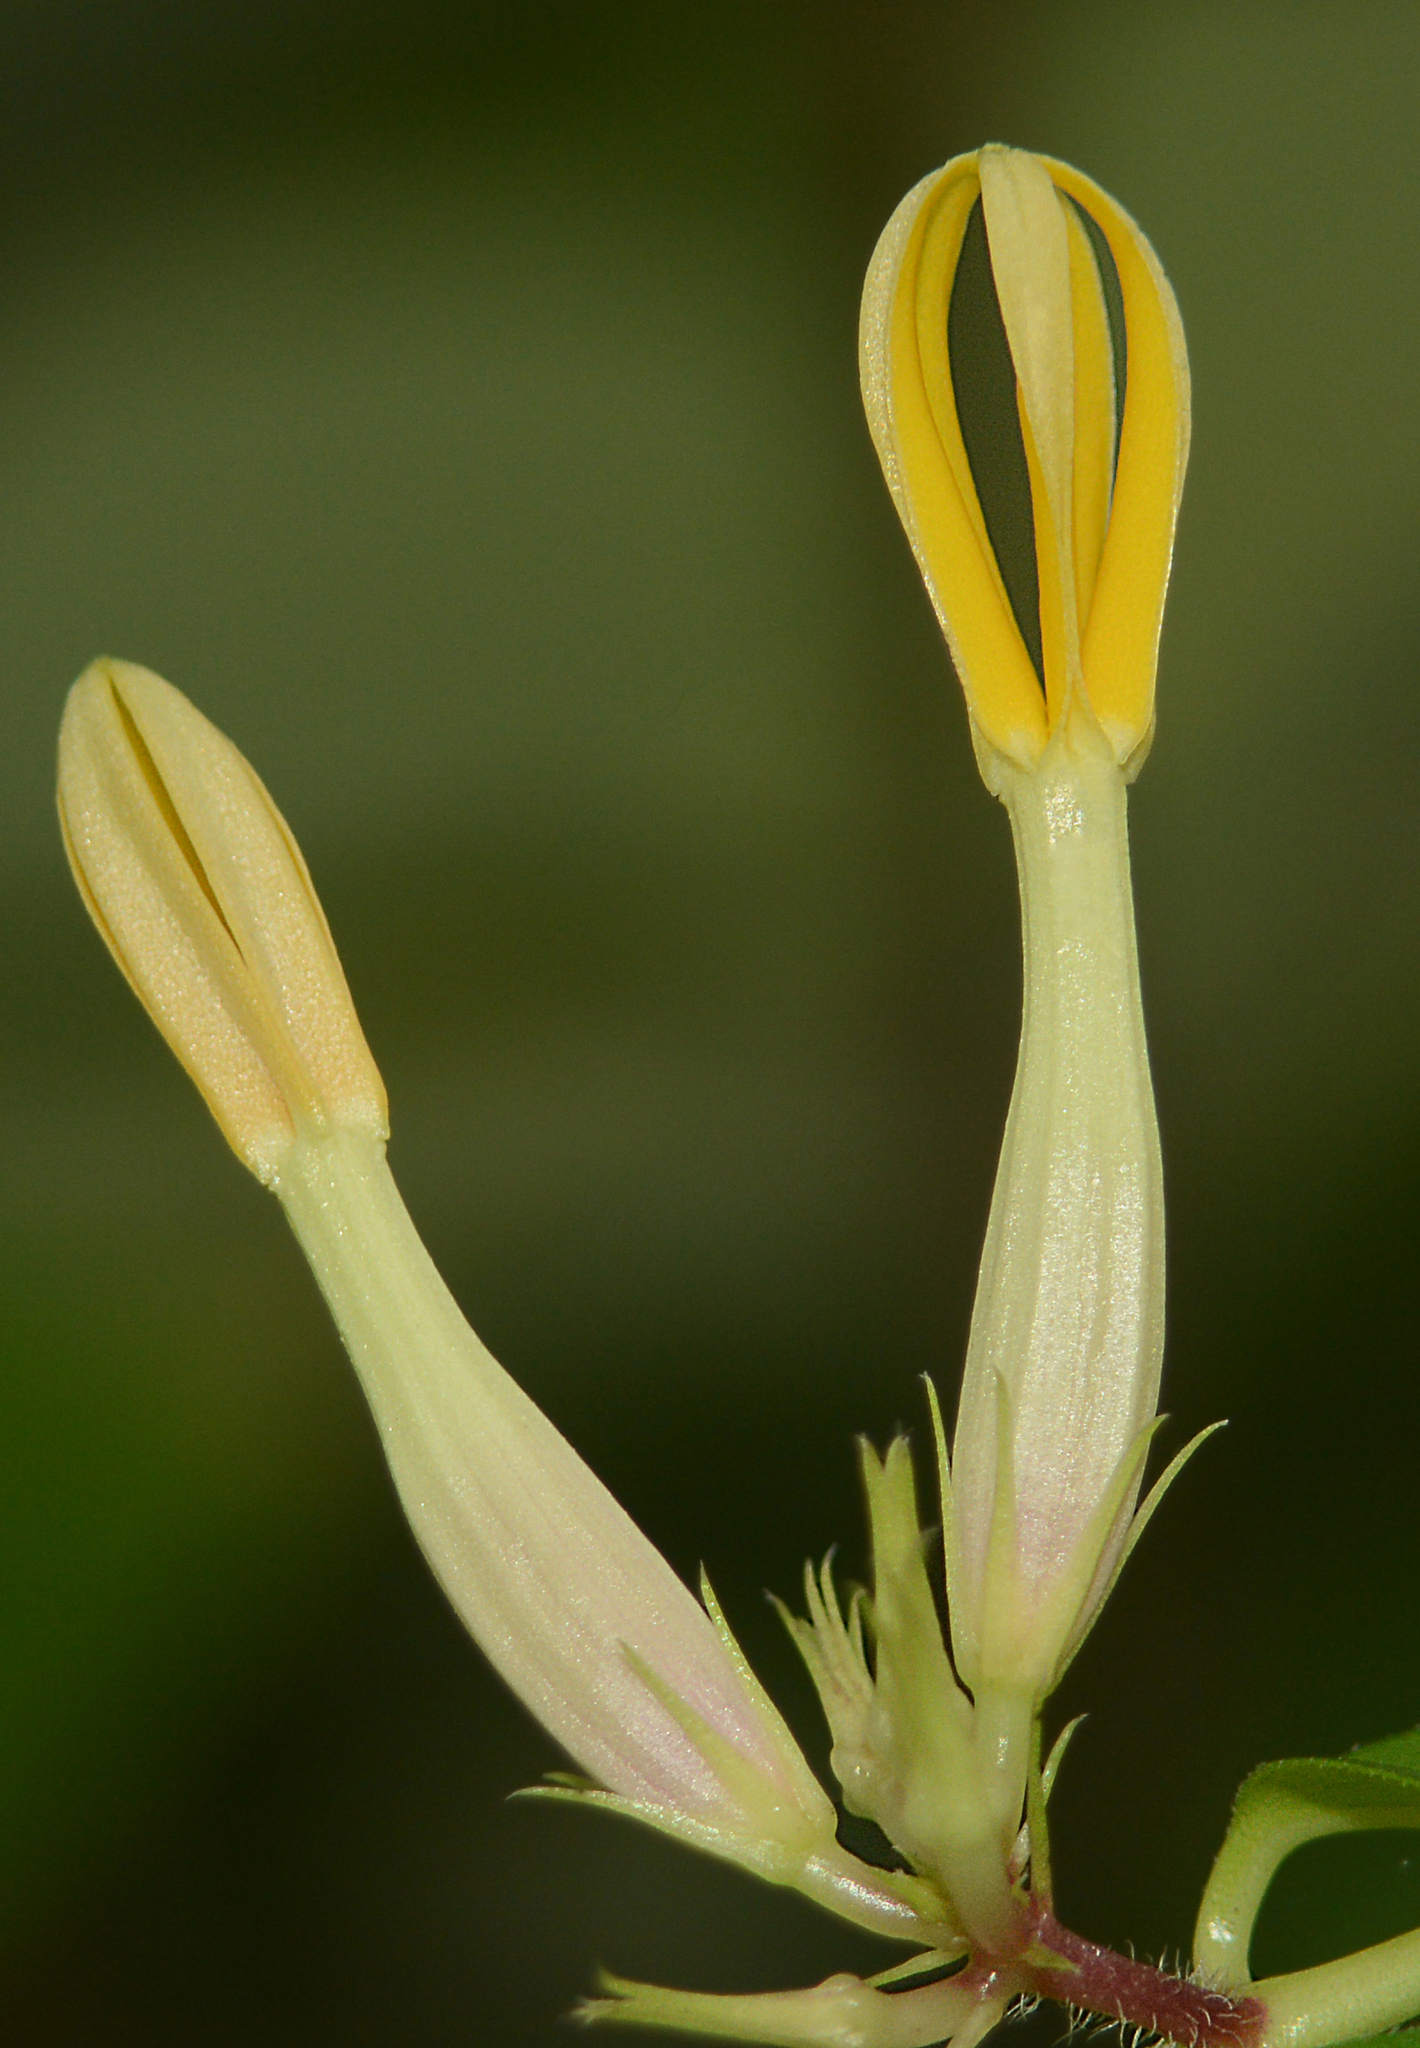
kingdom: Plantae
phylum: Tracheophyta
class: Magnoliopsida
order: Gentianales
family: Apocynaceae
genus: Ceropegia
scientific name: Ceropegia odorata
